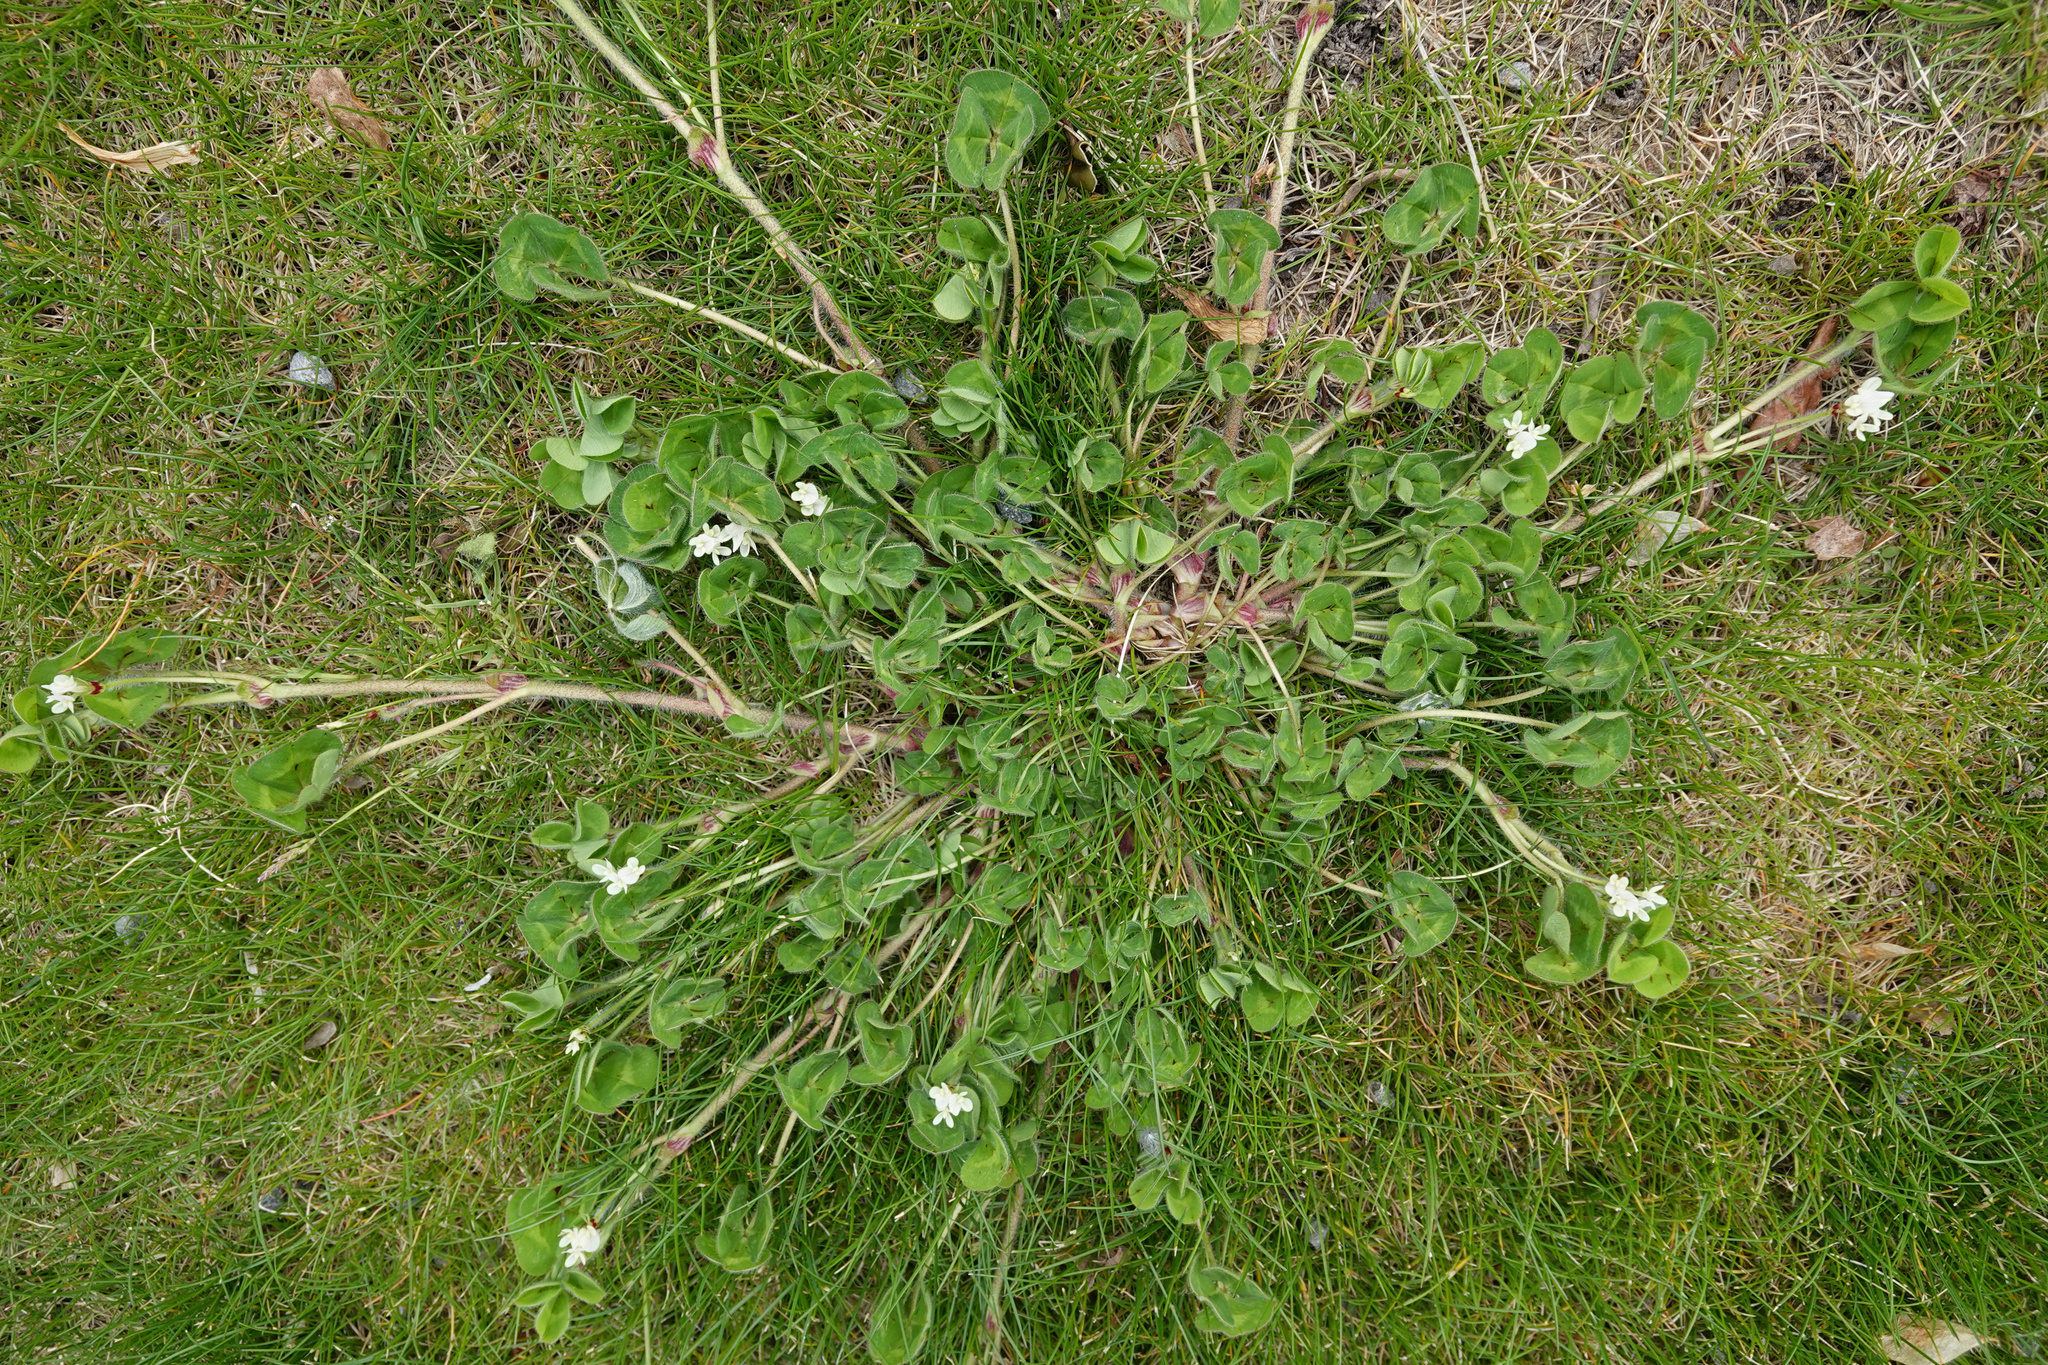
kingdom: Plantae
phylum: Tracheophyta
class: Magnoliopsida
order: Fabales
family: Fabaceae
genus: Trifolium
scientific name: Trifolium subterraneum
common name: Subterranean clover
